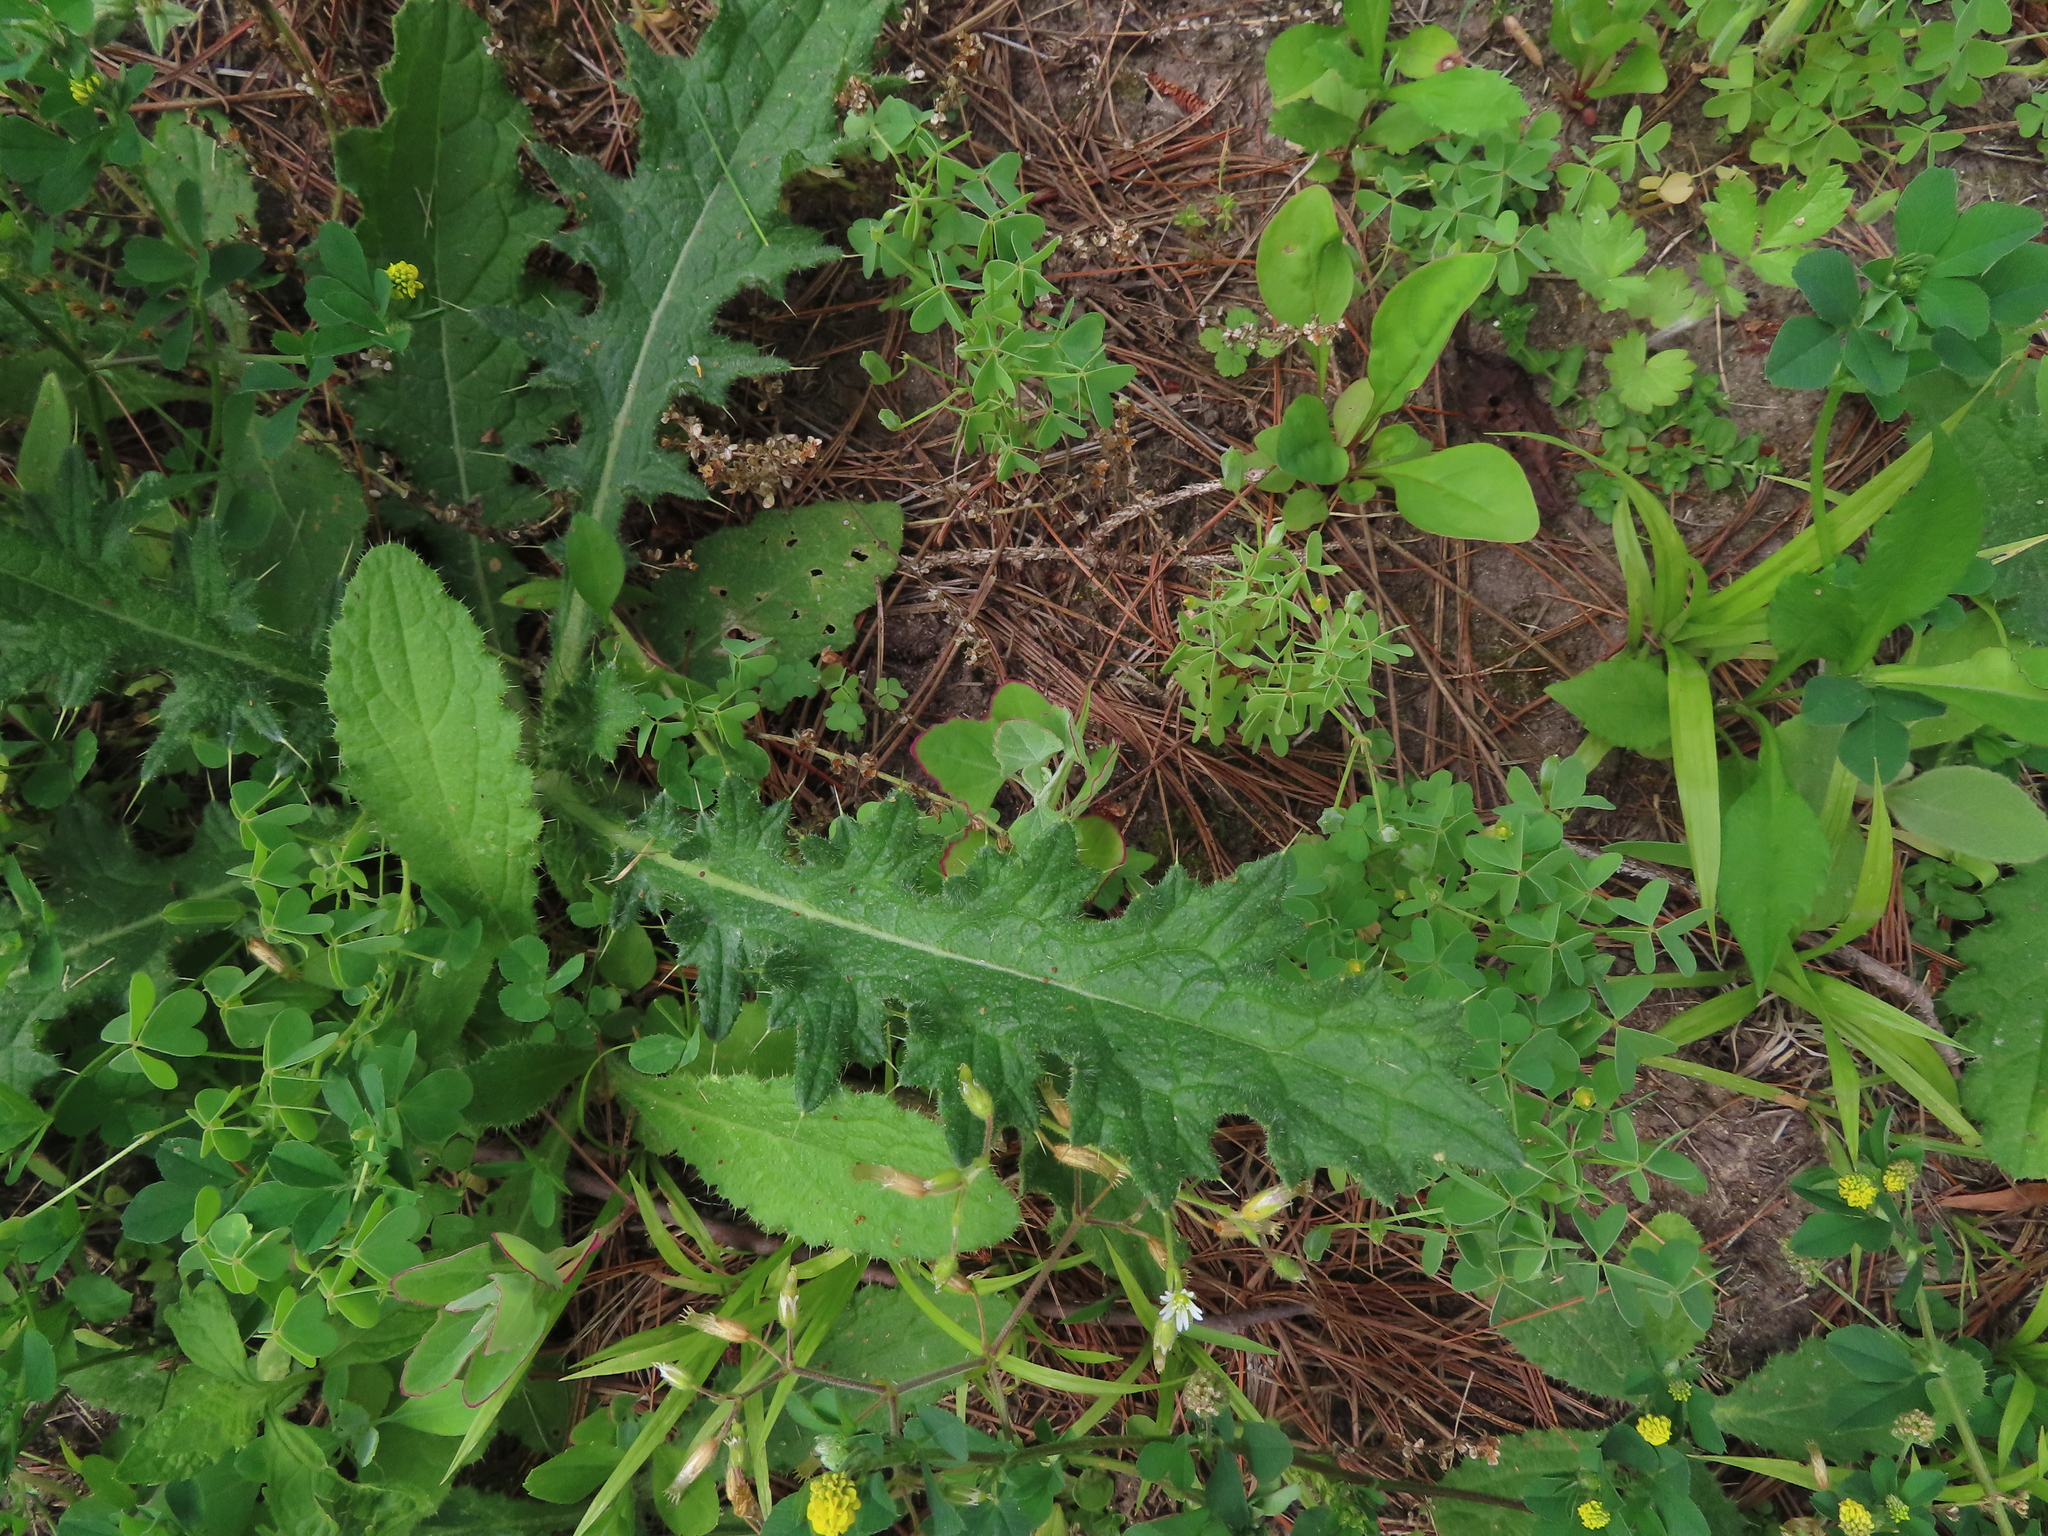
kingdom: Plantae
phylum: Tracheophyta
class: Magnoliopsida
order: Asterales
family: Asteraceae
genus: Cirsium
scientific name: Cirsium vulgare
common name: Bull thistle
